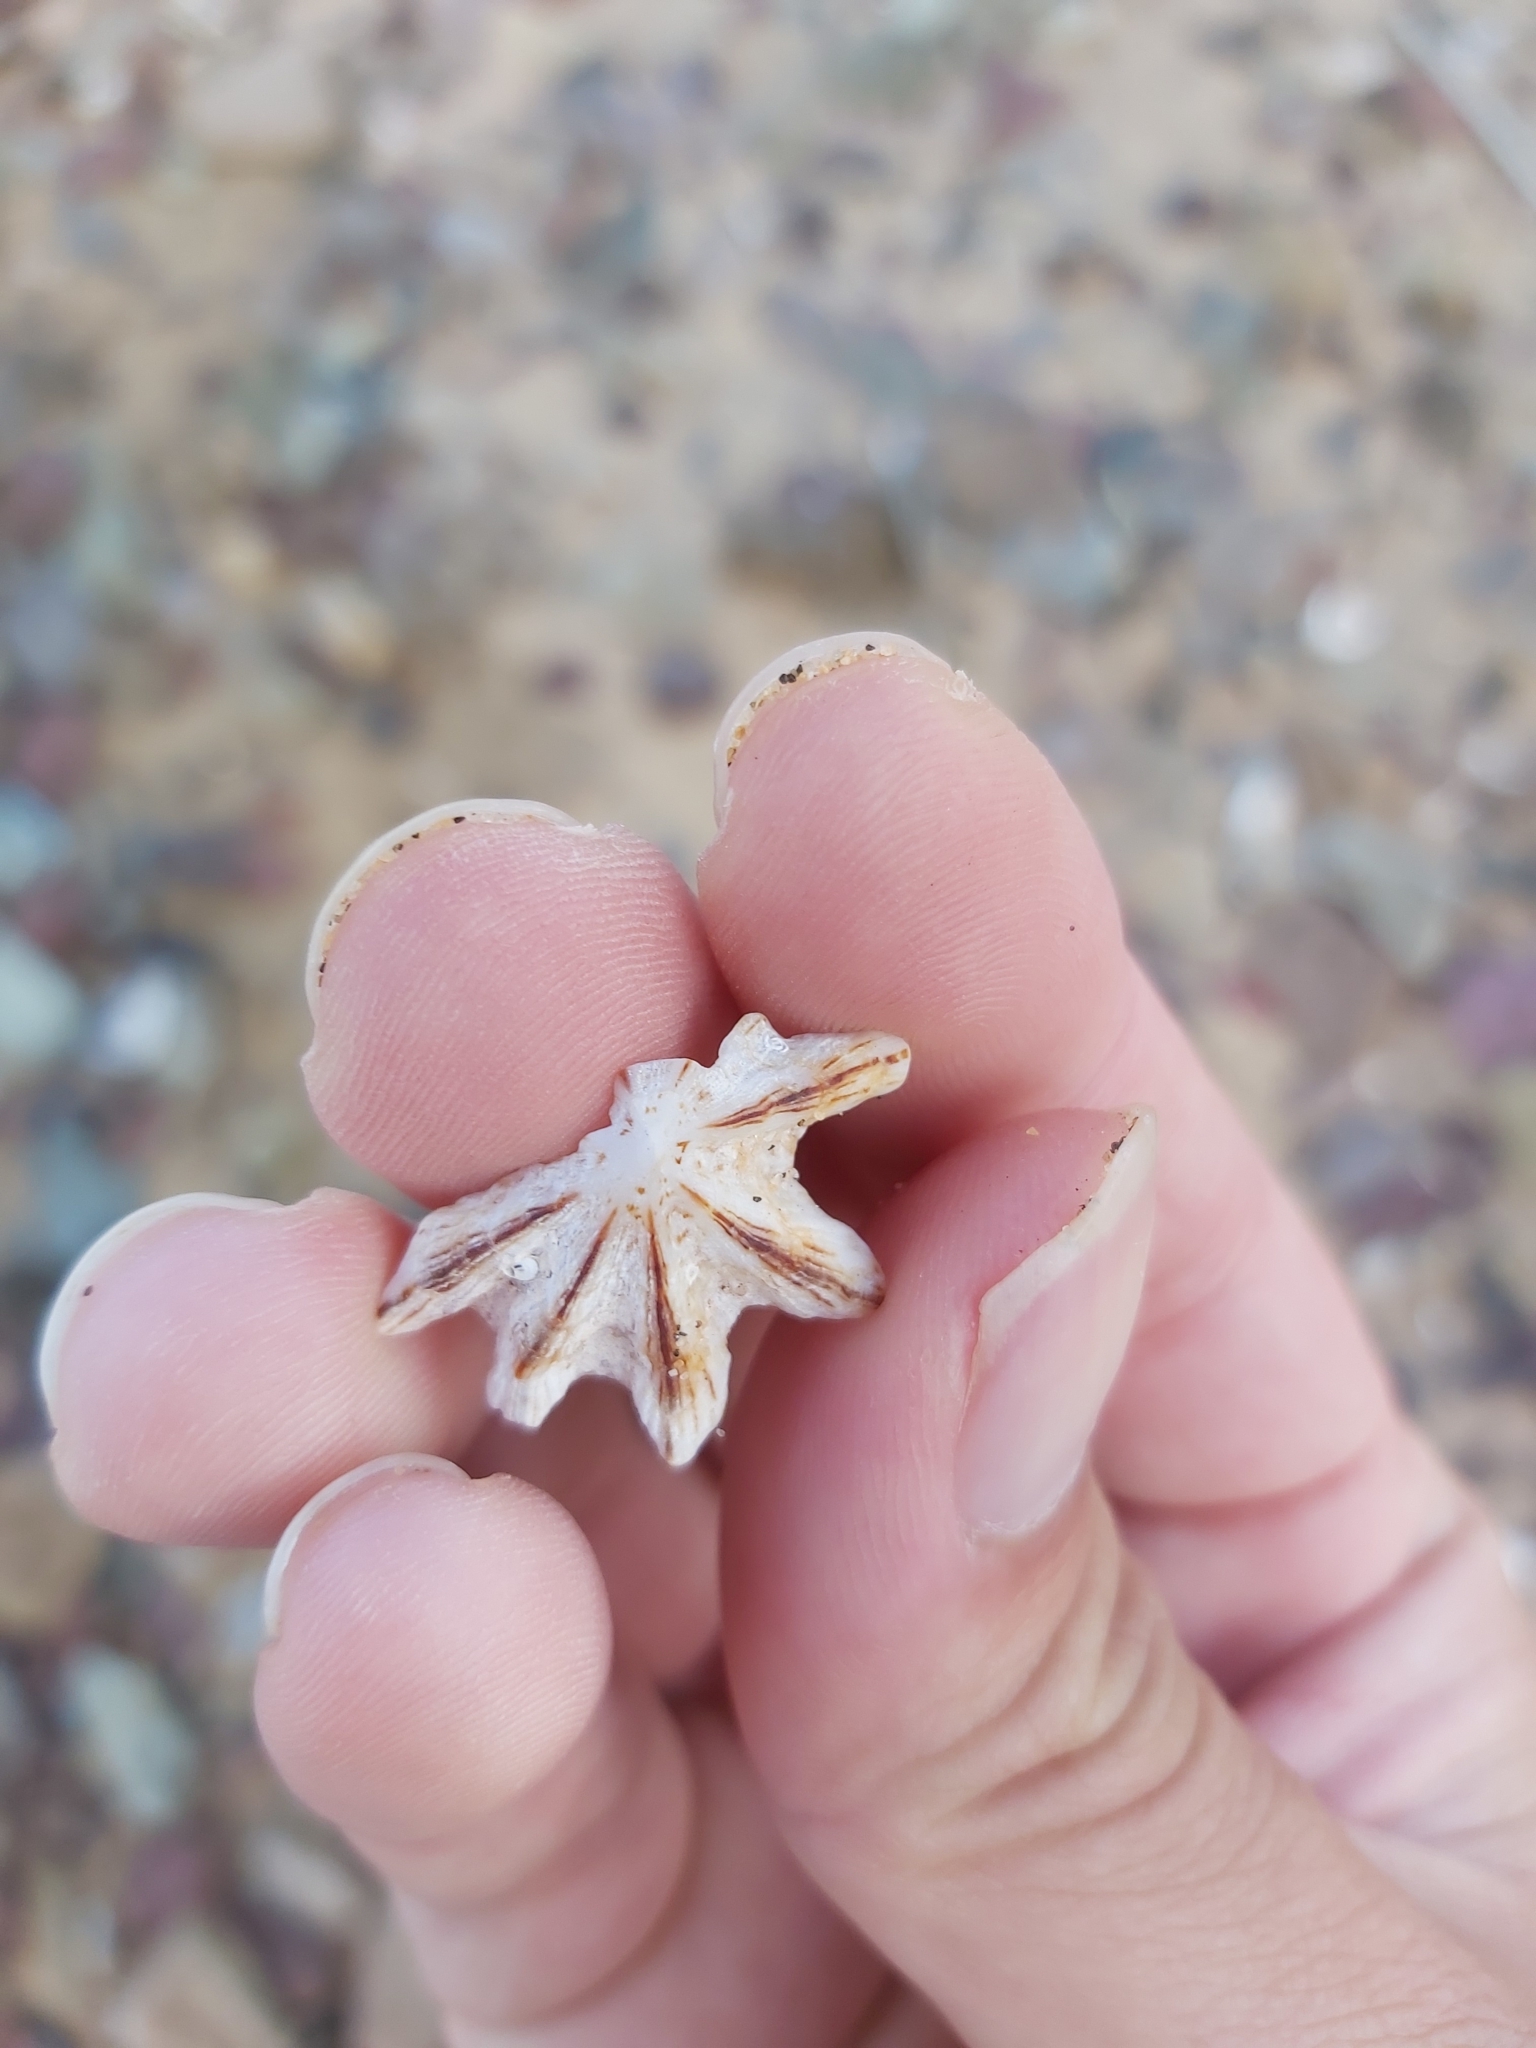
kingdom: Animalia
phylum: Mollusca
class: Gastropoda
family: Patellidae
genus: Scutellastra
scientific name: Scutellastra chapmani
